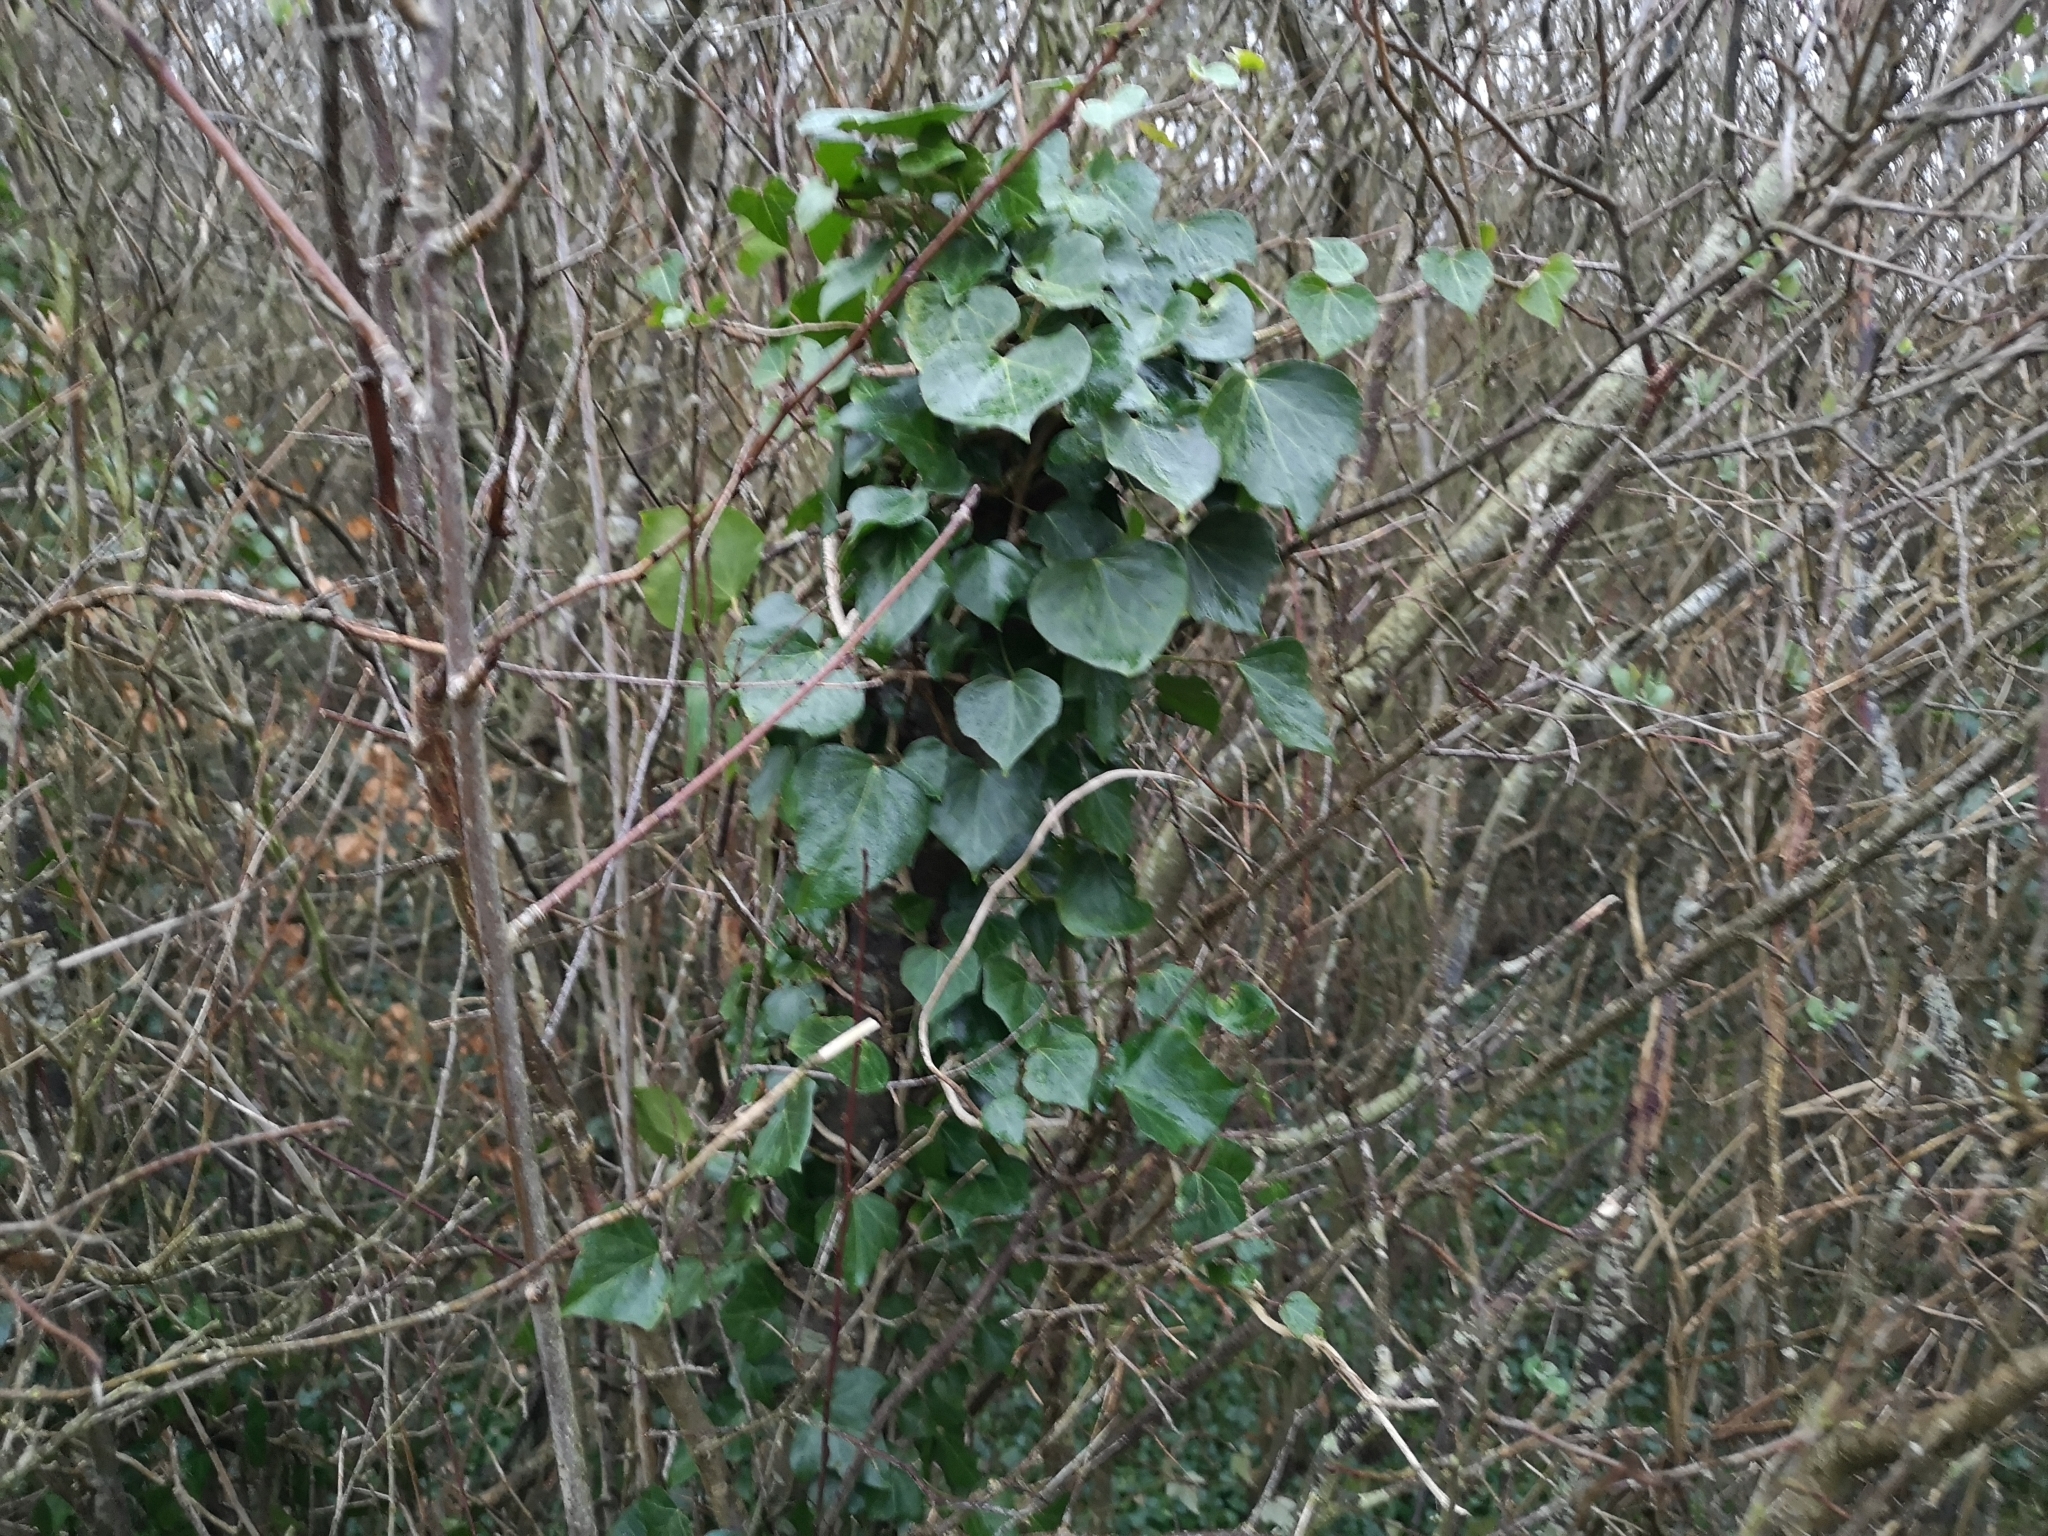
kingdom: Plantae
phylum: Tracheophyta
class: Magnoliopsida
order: Apiales
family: Araliaceae
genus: Hedera
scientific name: Hedera helix
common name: Ivy
